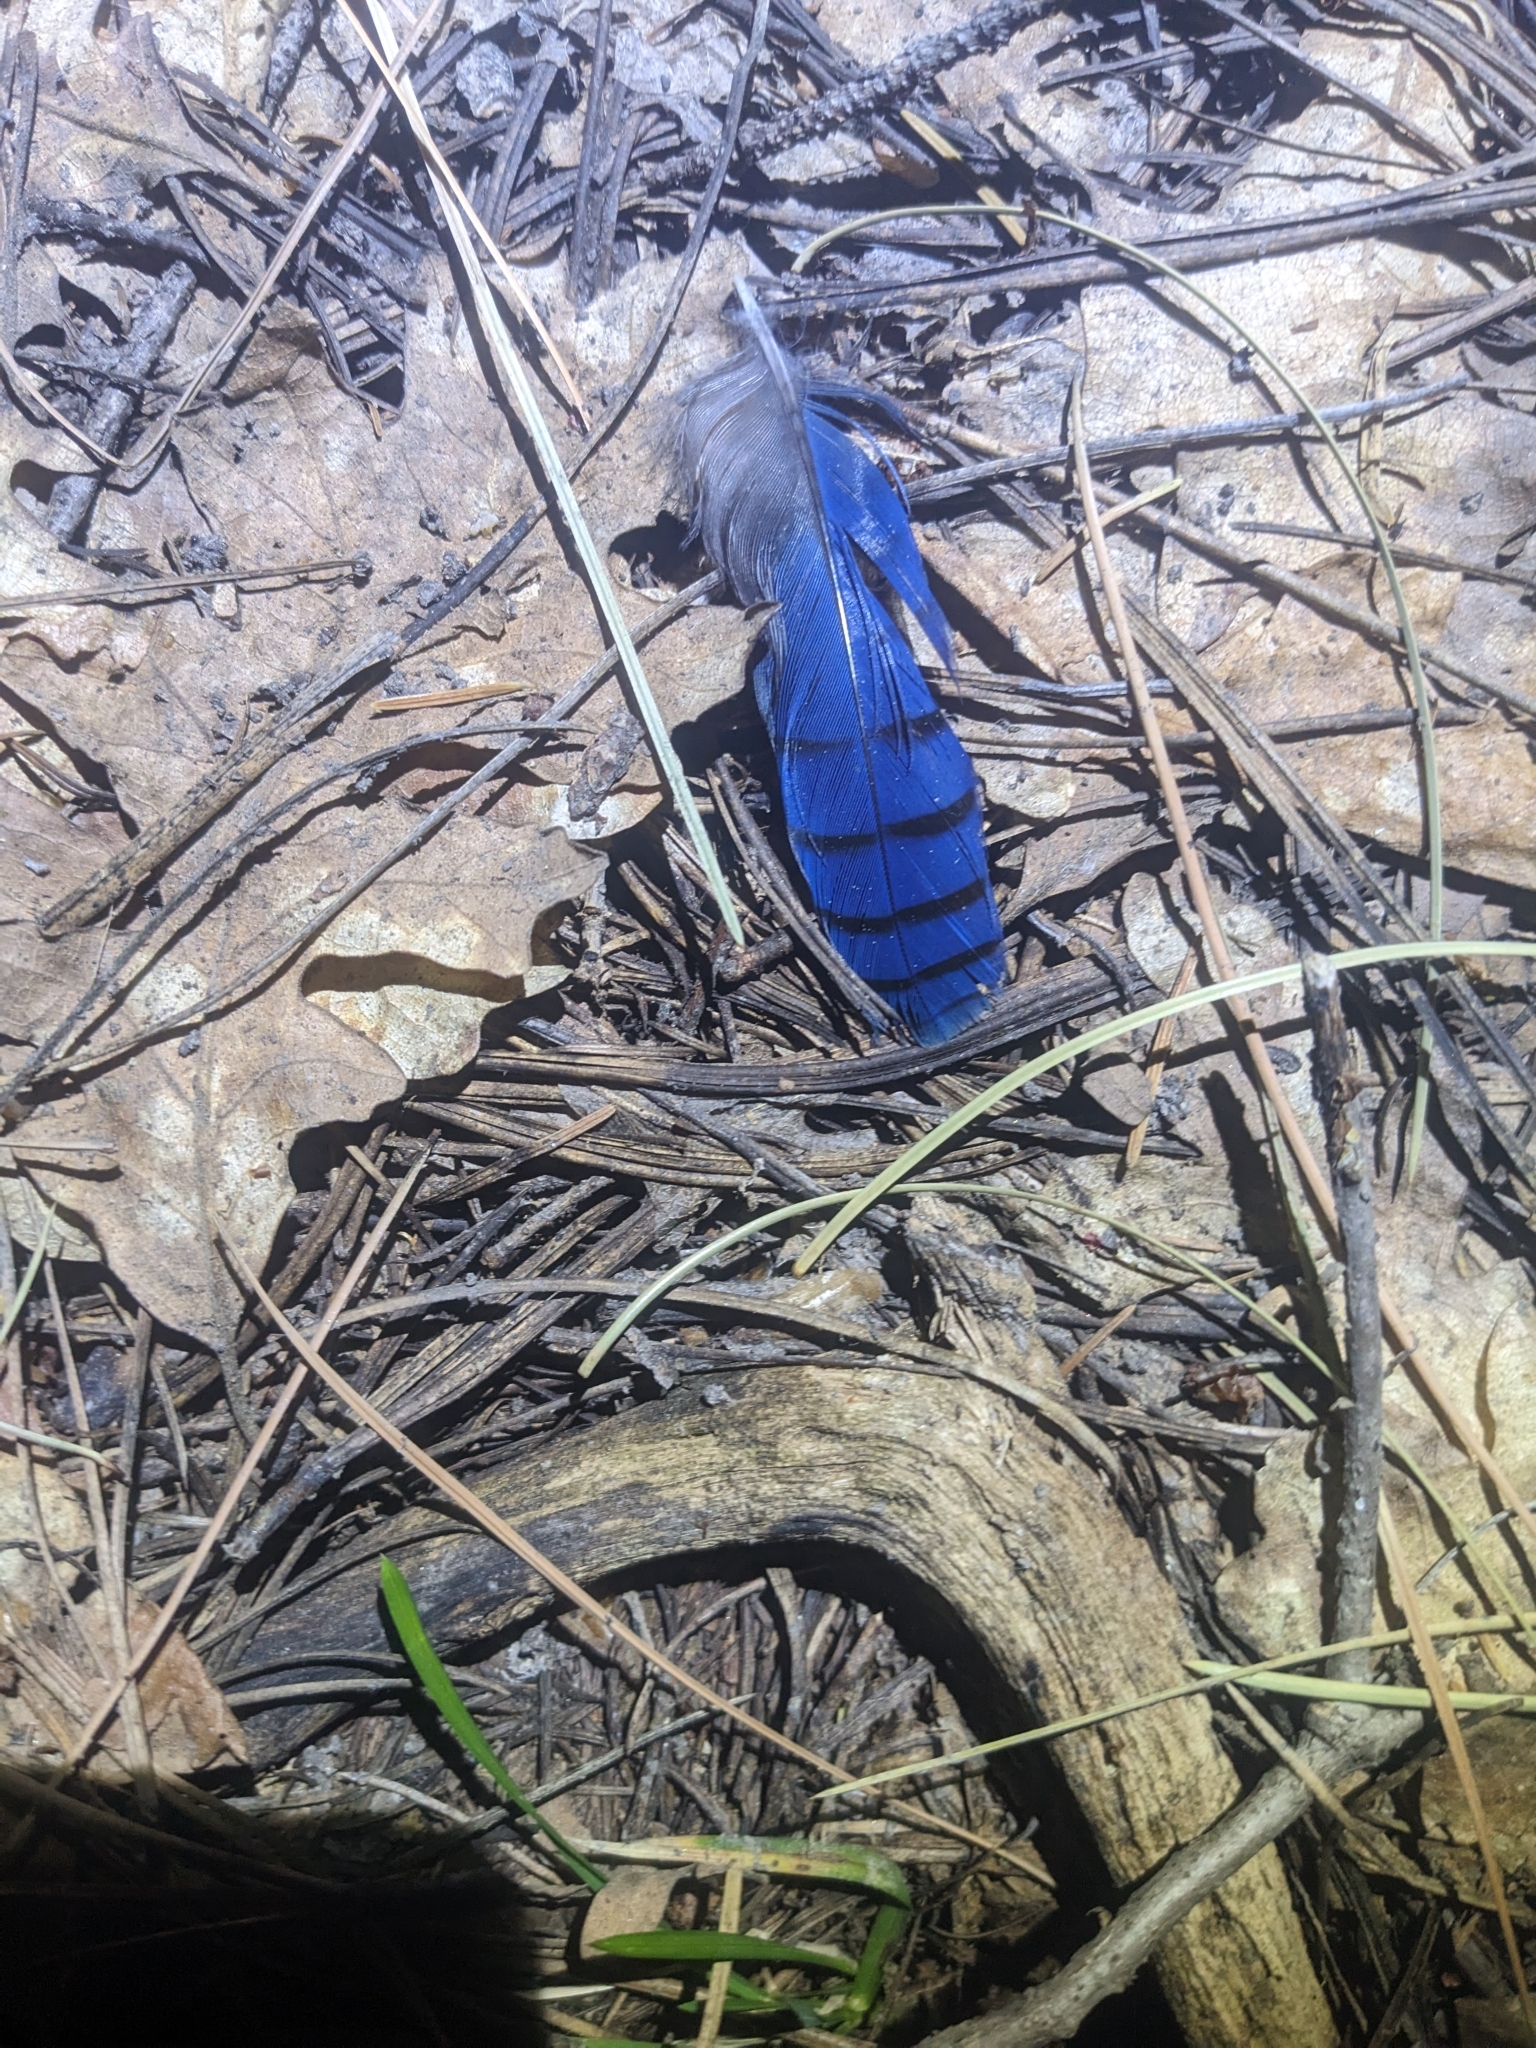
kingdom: Animalia
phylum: Chordata
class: Aves
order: Passeriformes
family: Corvidae
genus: Cyanocitta
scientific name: Cyanocitta stelleri
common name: Steller's jay
